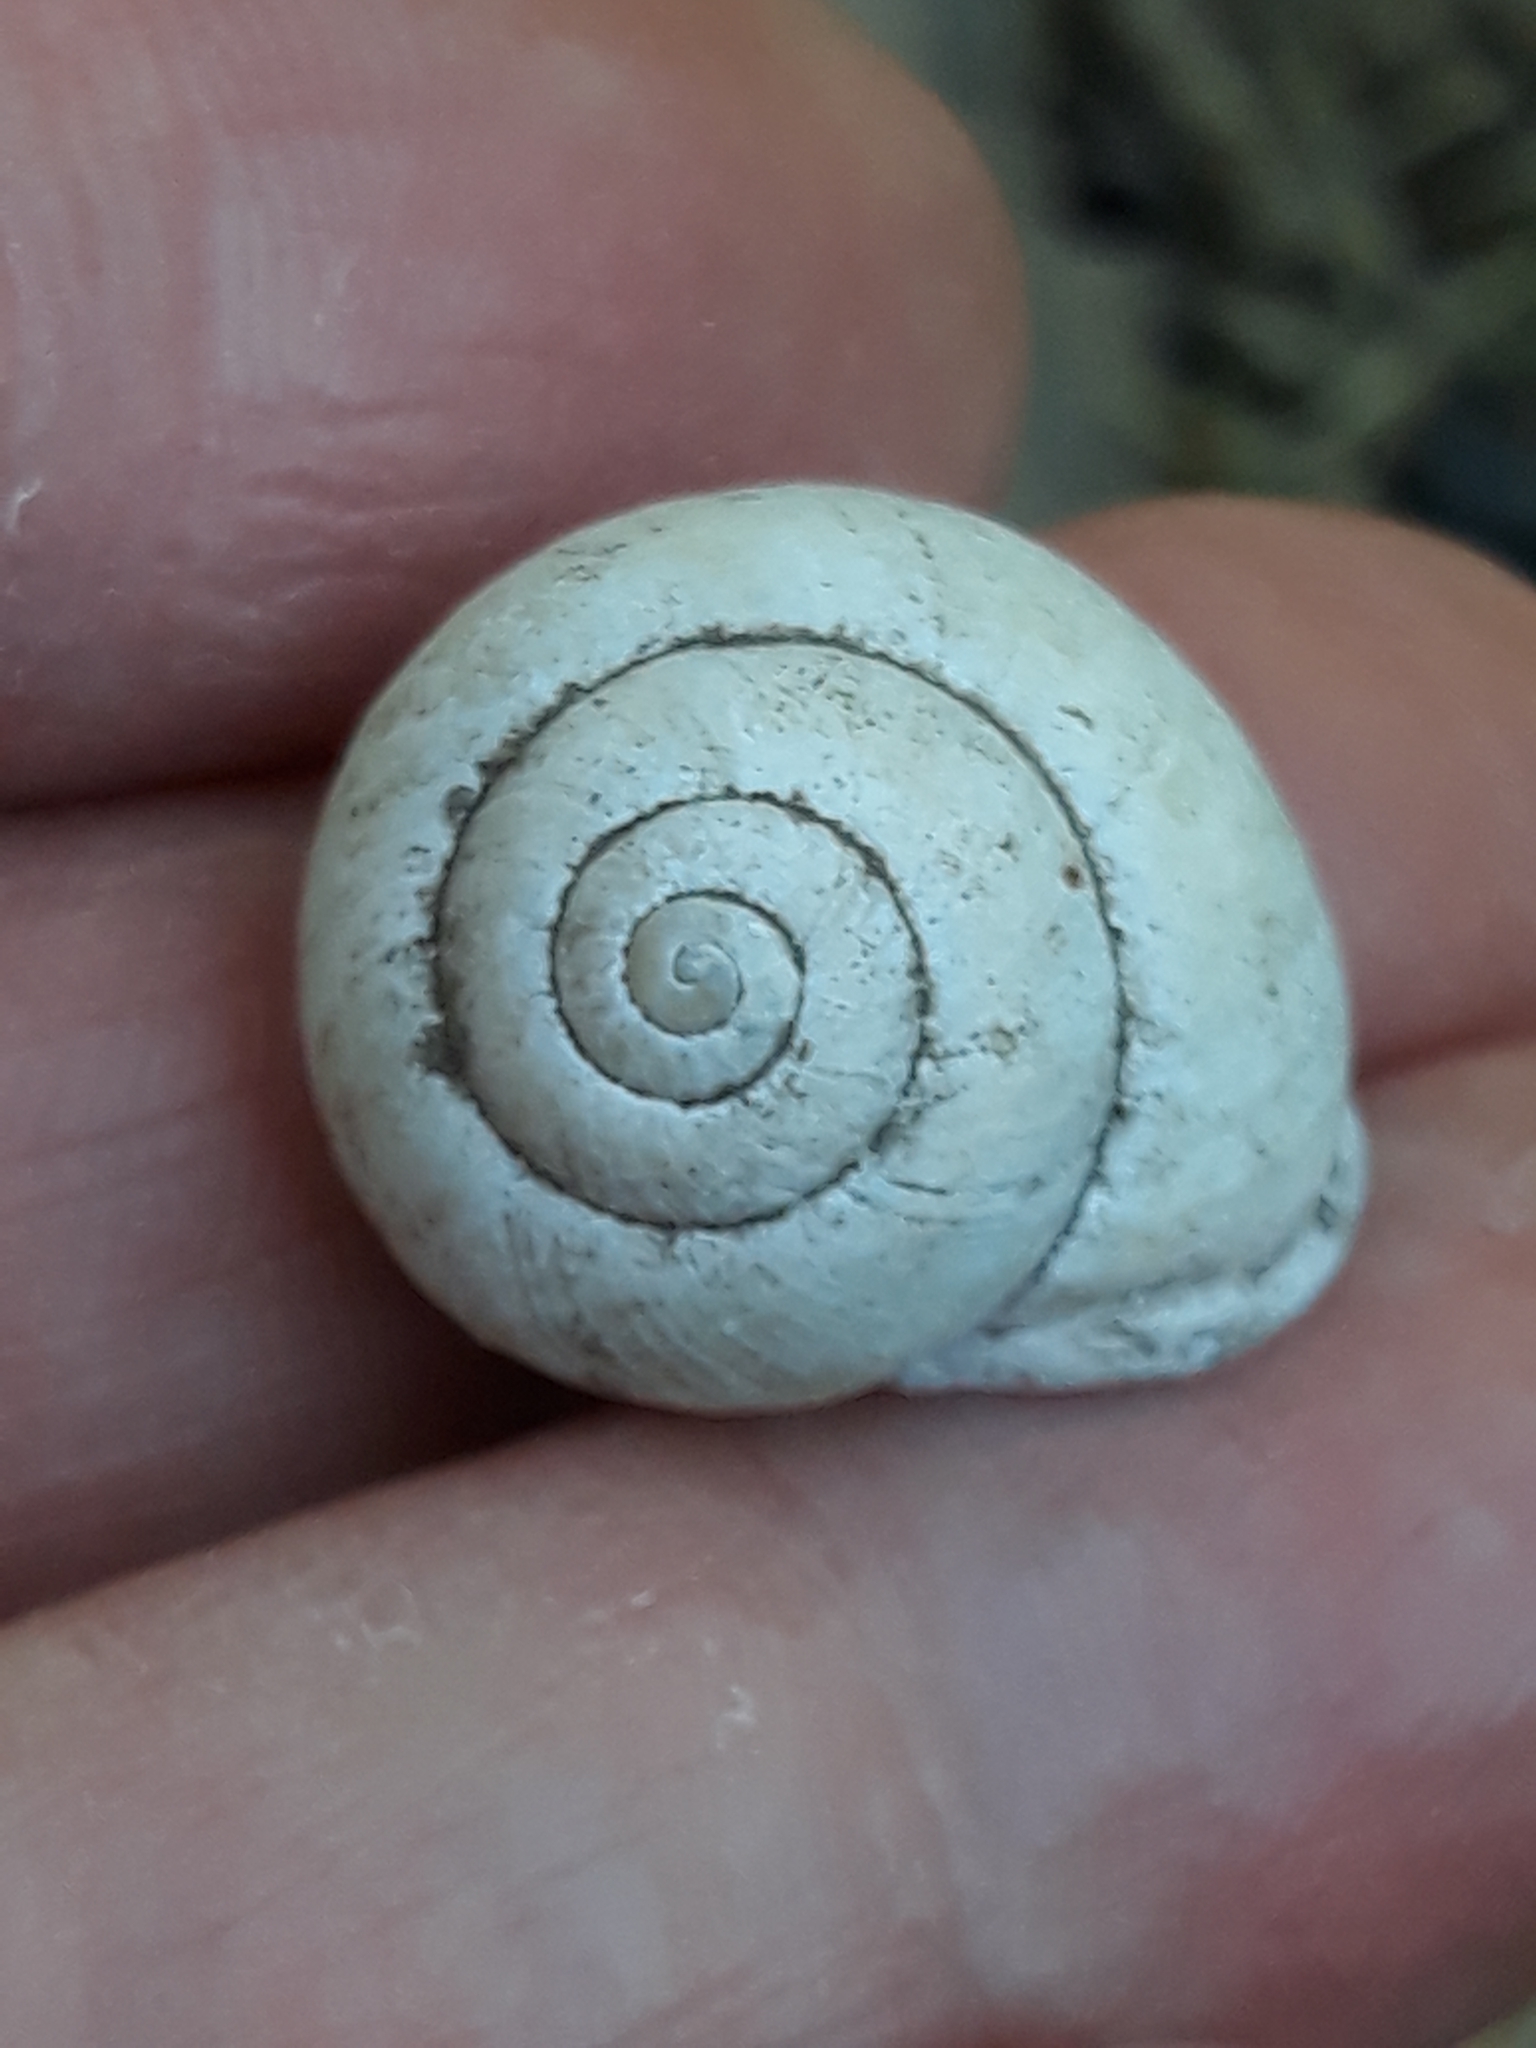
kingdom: Animalia
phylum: Mollusca
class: Gastropoda
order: Stylommatophora
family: Helicidae
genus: Cepaea
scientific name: Cepaea hortensis
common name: White-lip gardensnail
